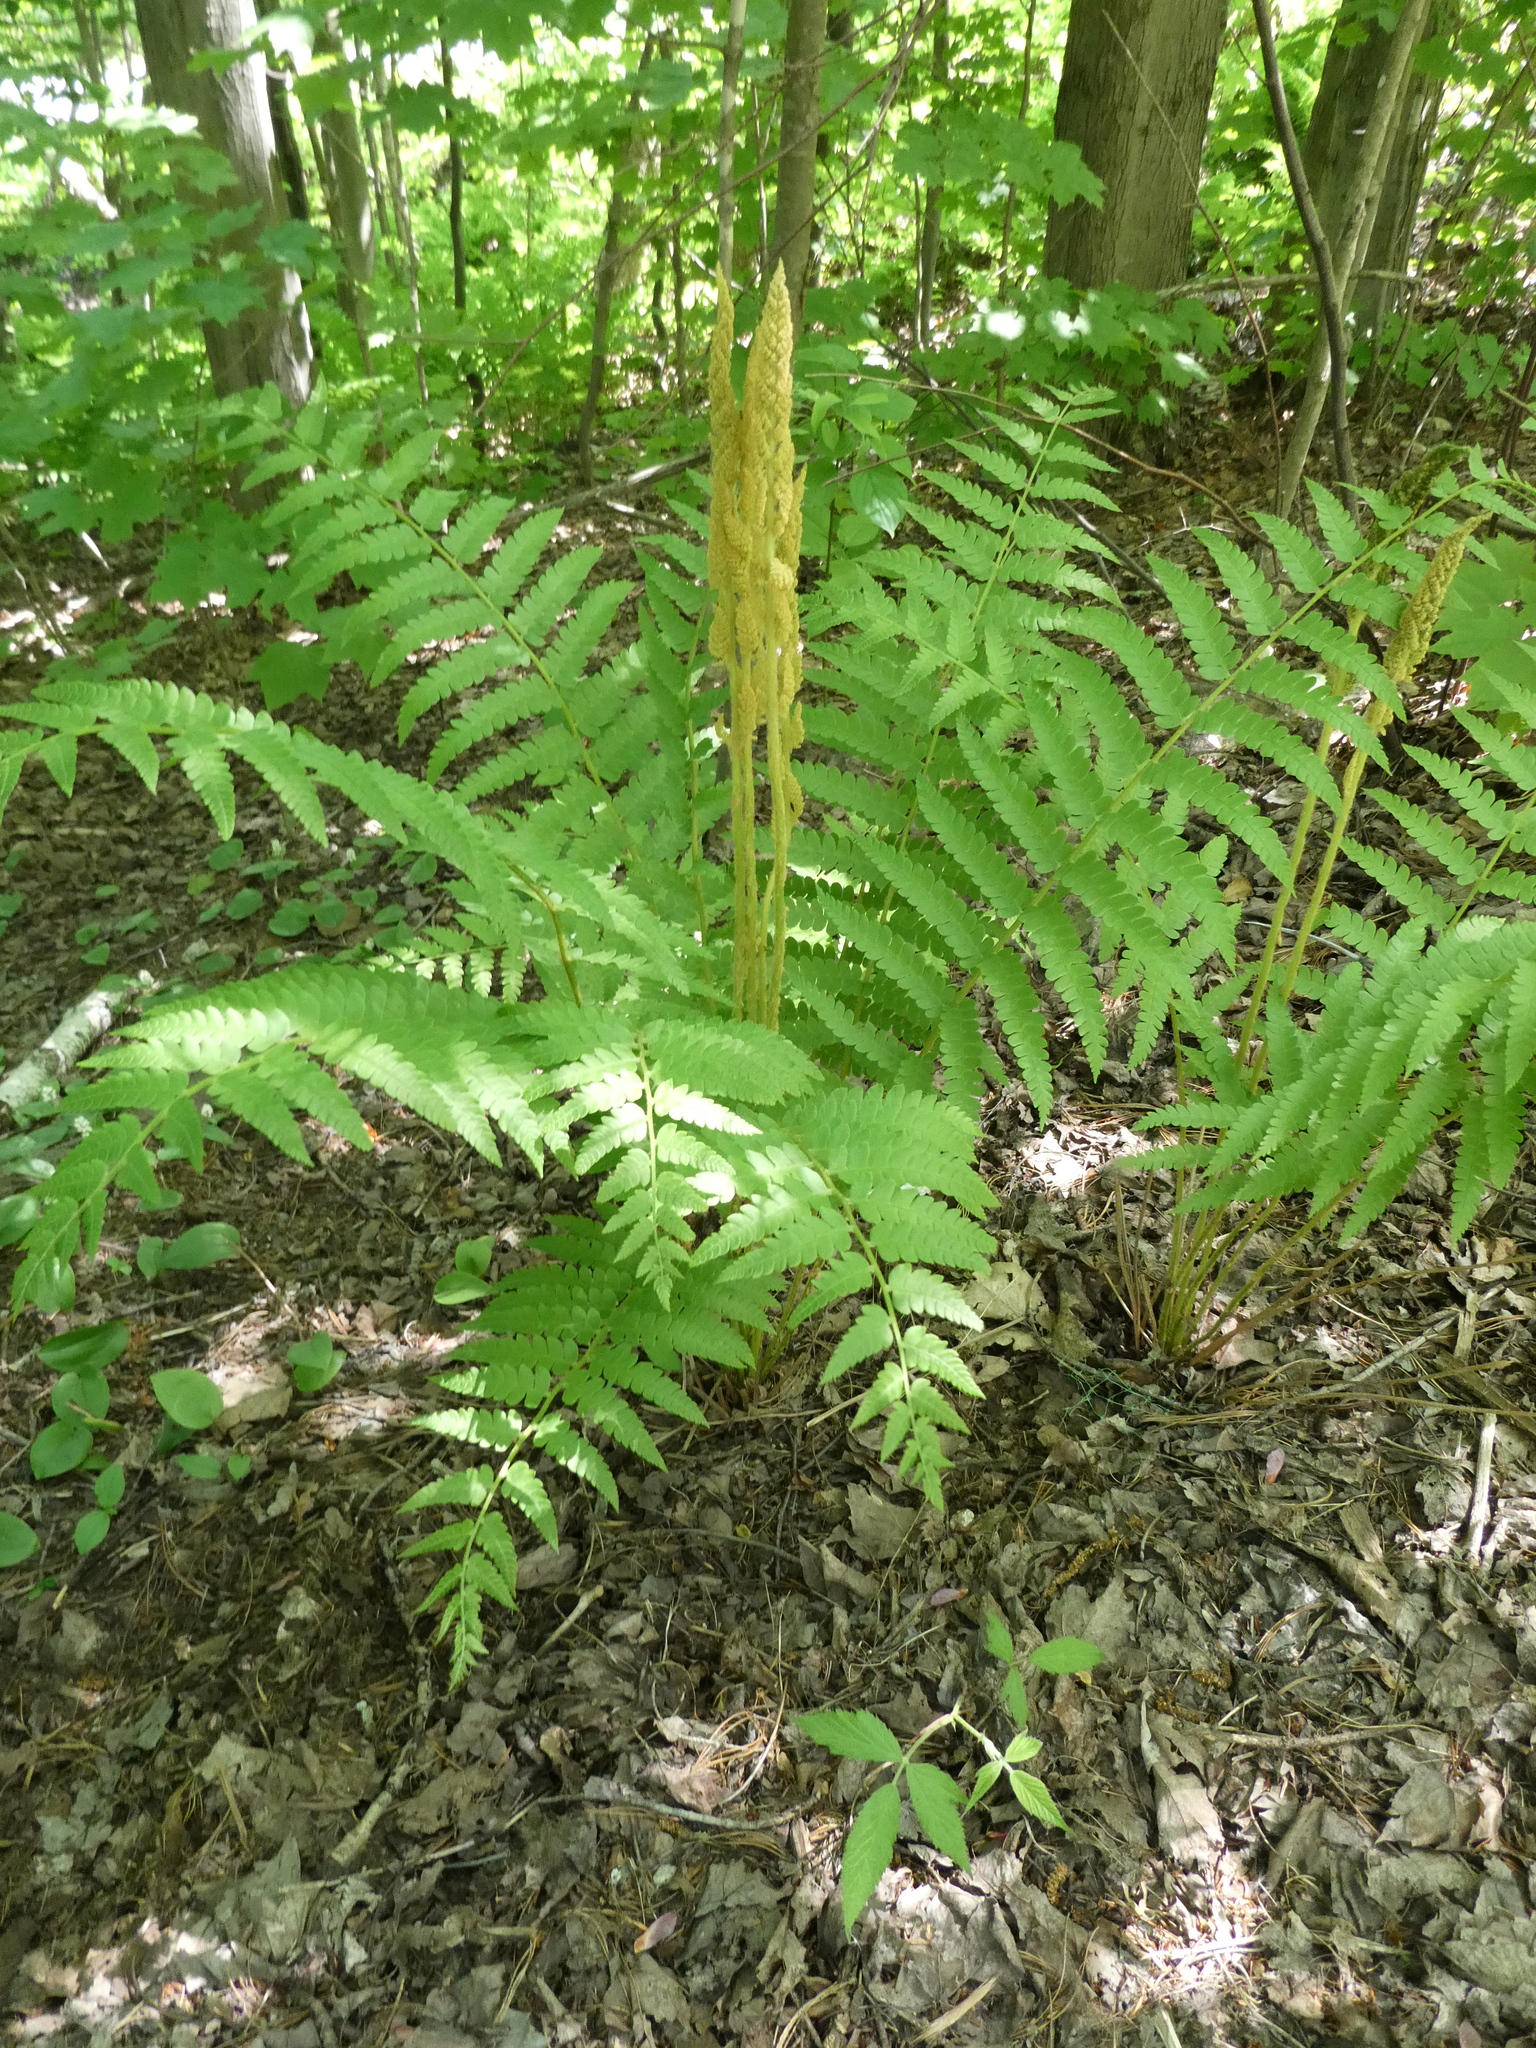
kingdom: Plantae
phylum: Tracheophyta
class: Polypodiopsida
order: Osmundales
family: Osmundaceae
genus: Osmundastrum
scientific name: Osmundastrum cinnamomeum
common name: Cinnamon fern
